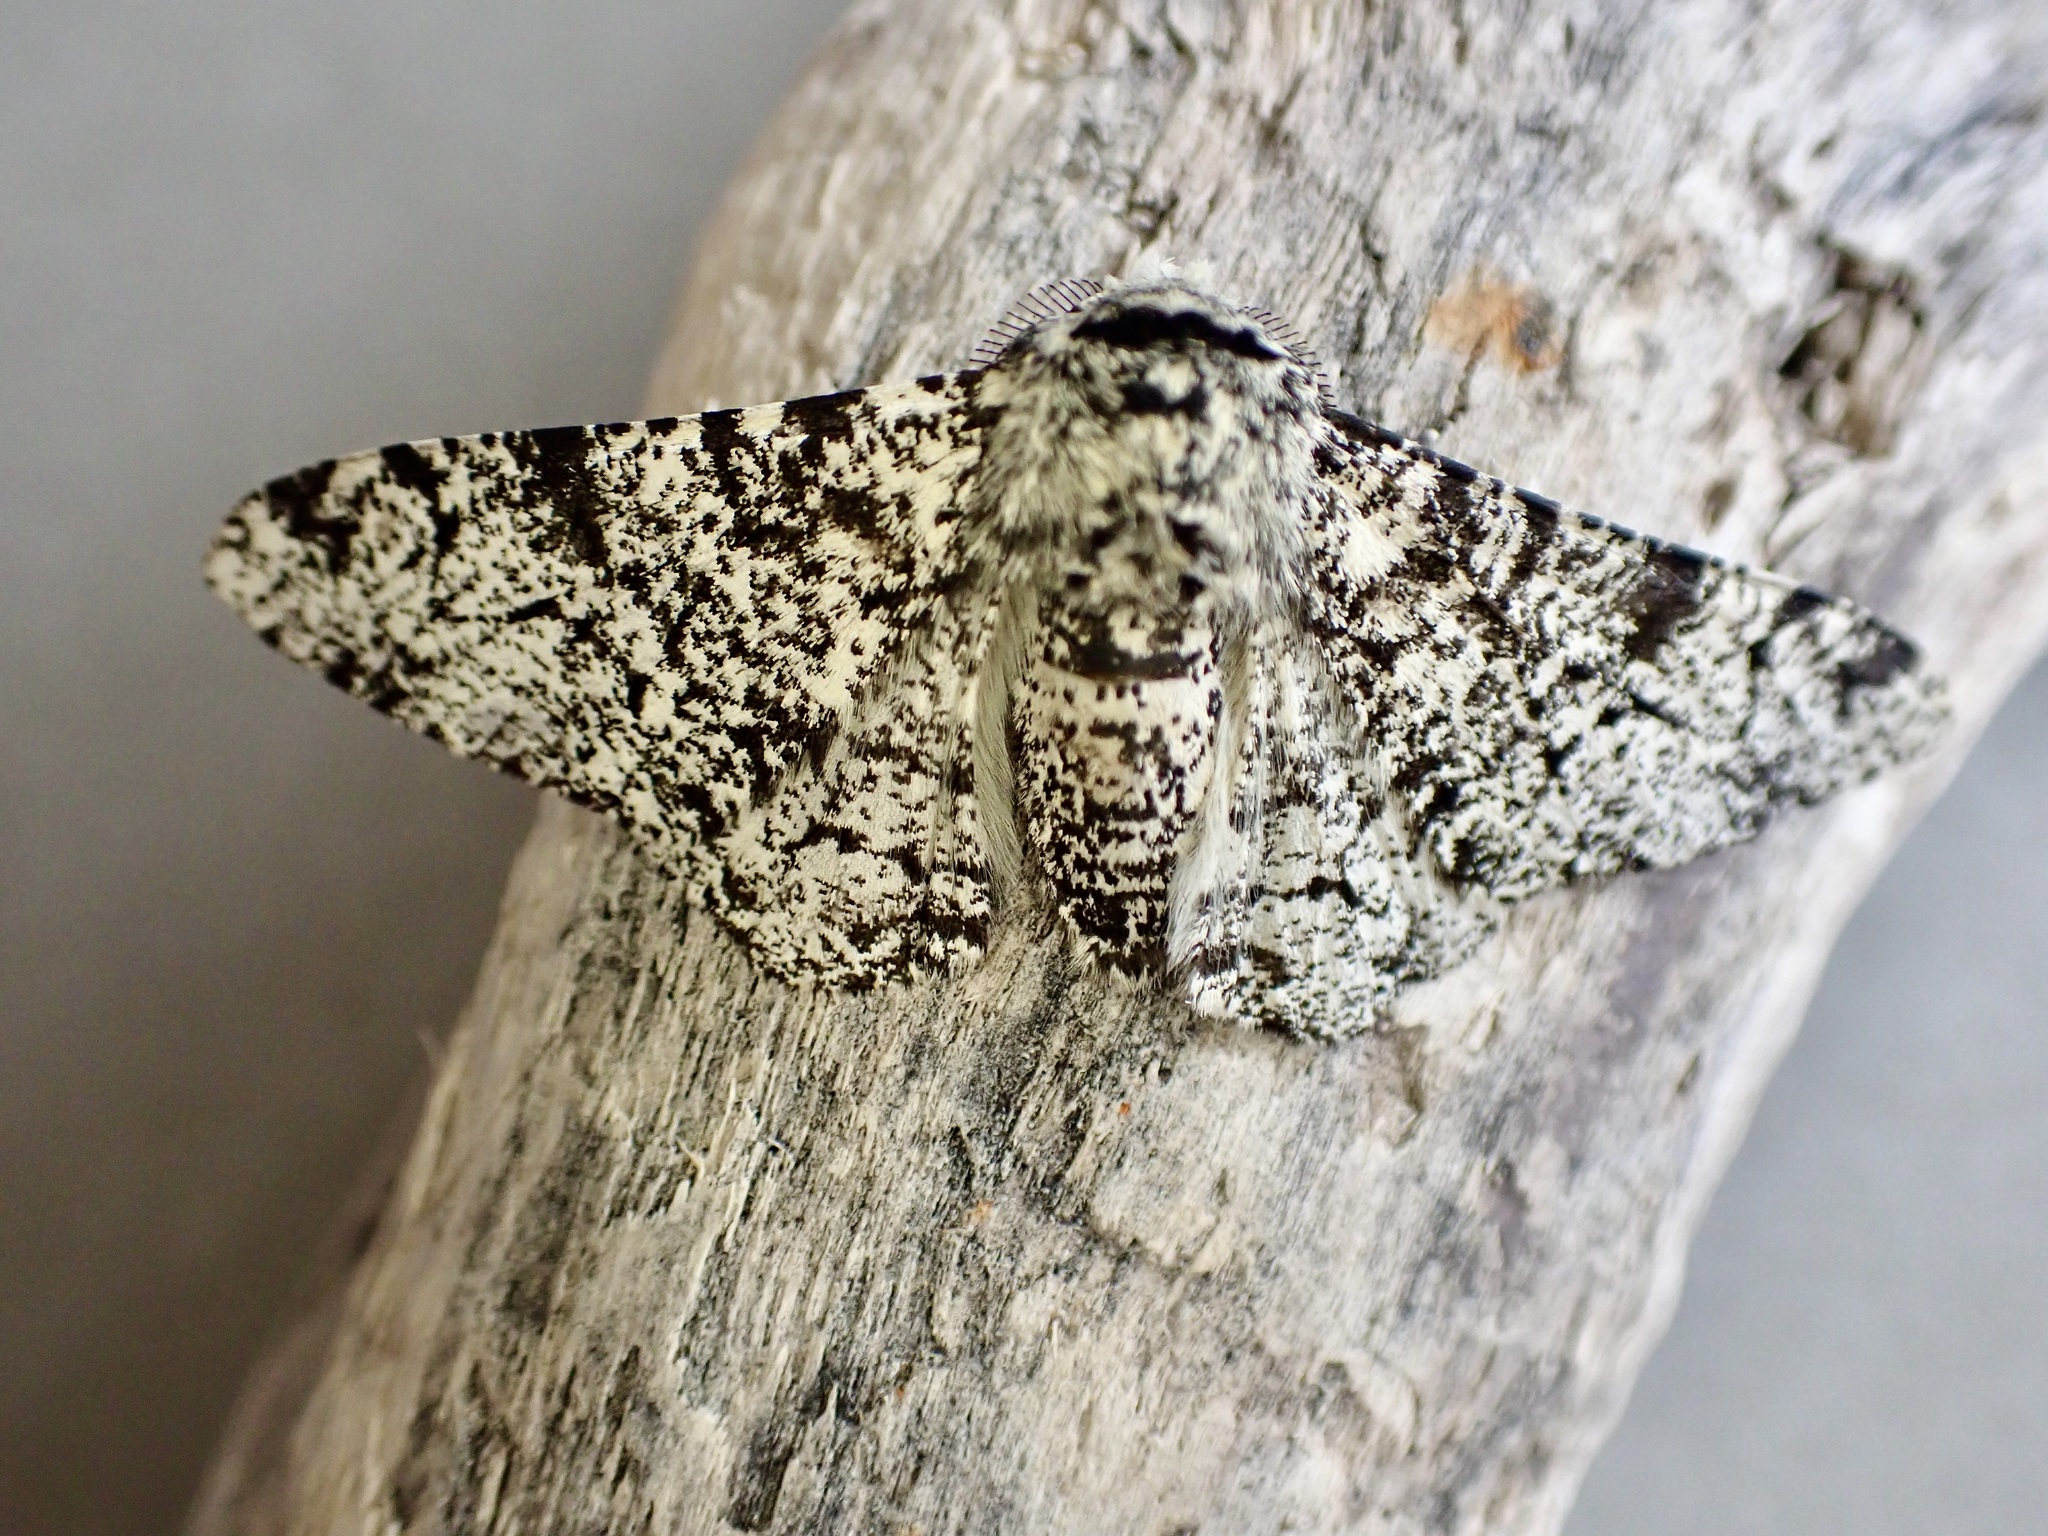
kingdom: Animalia
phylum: Arthropoda
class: Insecta
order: Lepidoptera
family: Geometridae
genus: Biston
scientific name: Biston betularia
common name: Peppered moth
